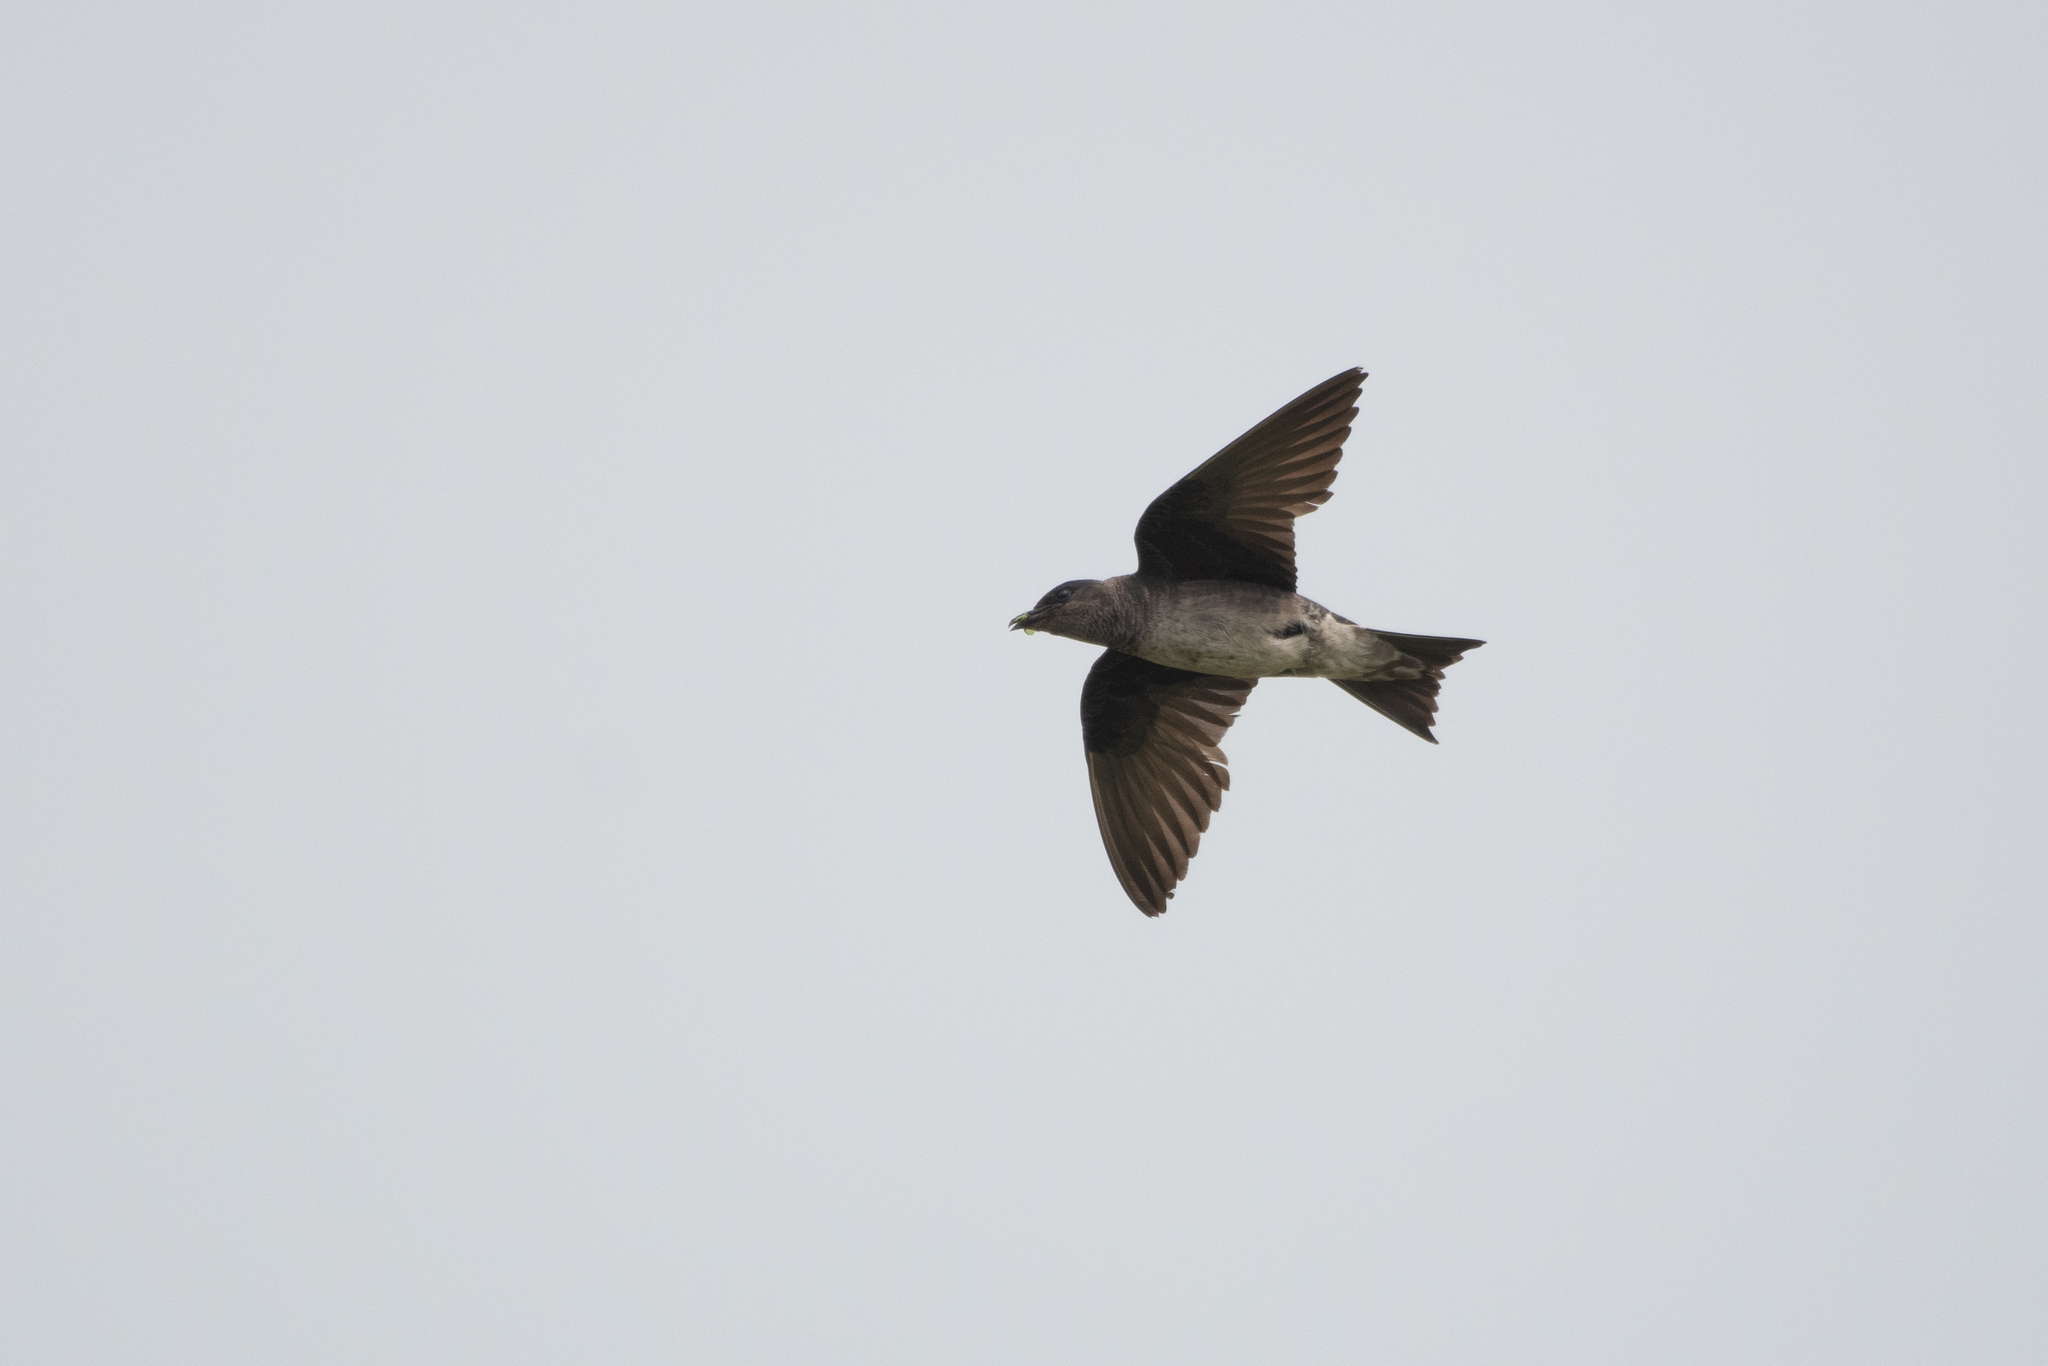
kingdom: Animalia
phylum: Chordata
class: Aves
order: Passeriformes
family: Hirundinidae
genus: Progne
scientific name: Progne subis
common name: Purple martin
